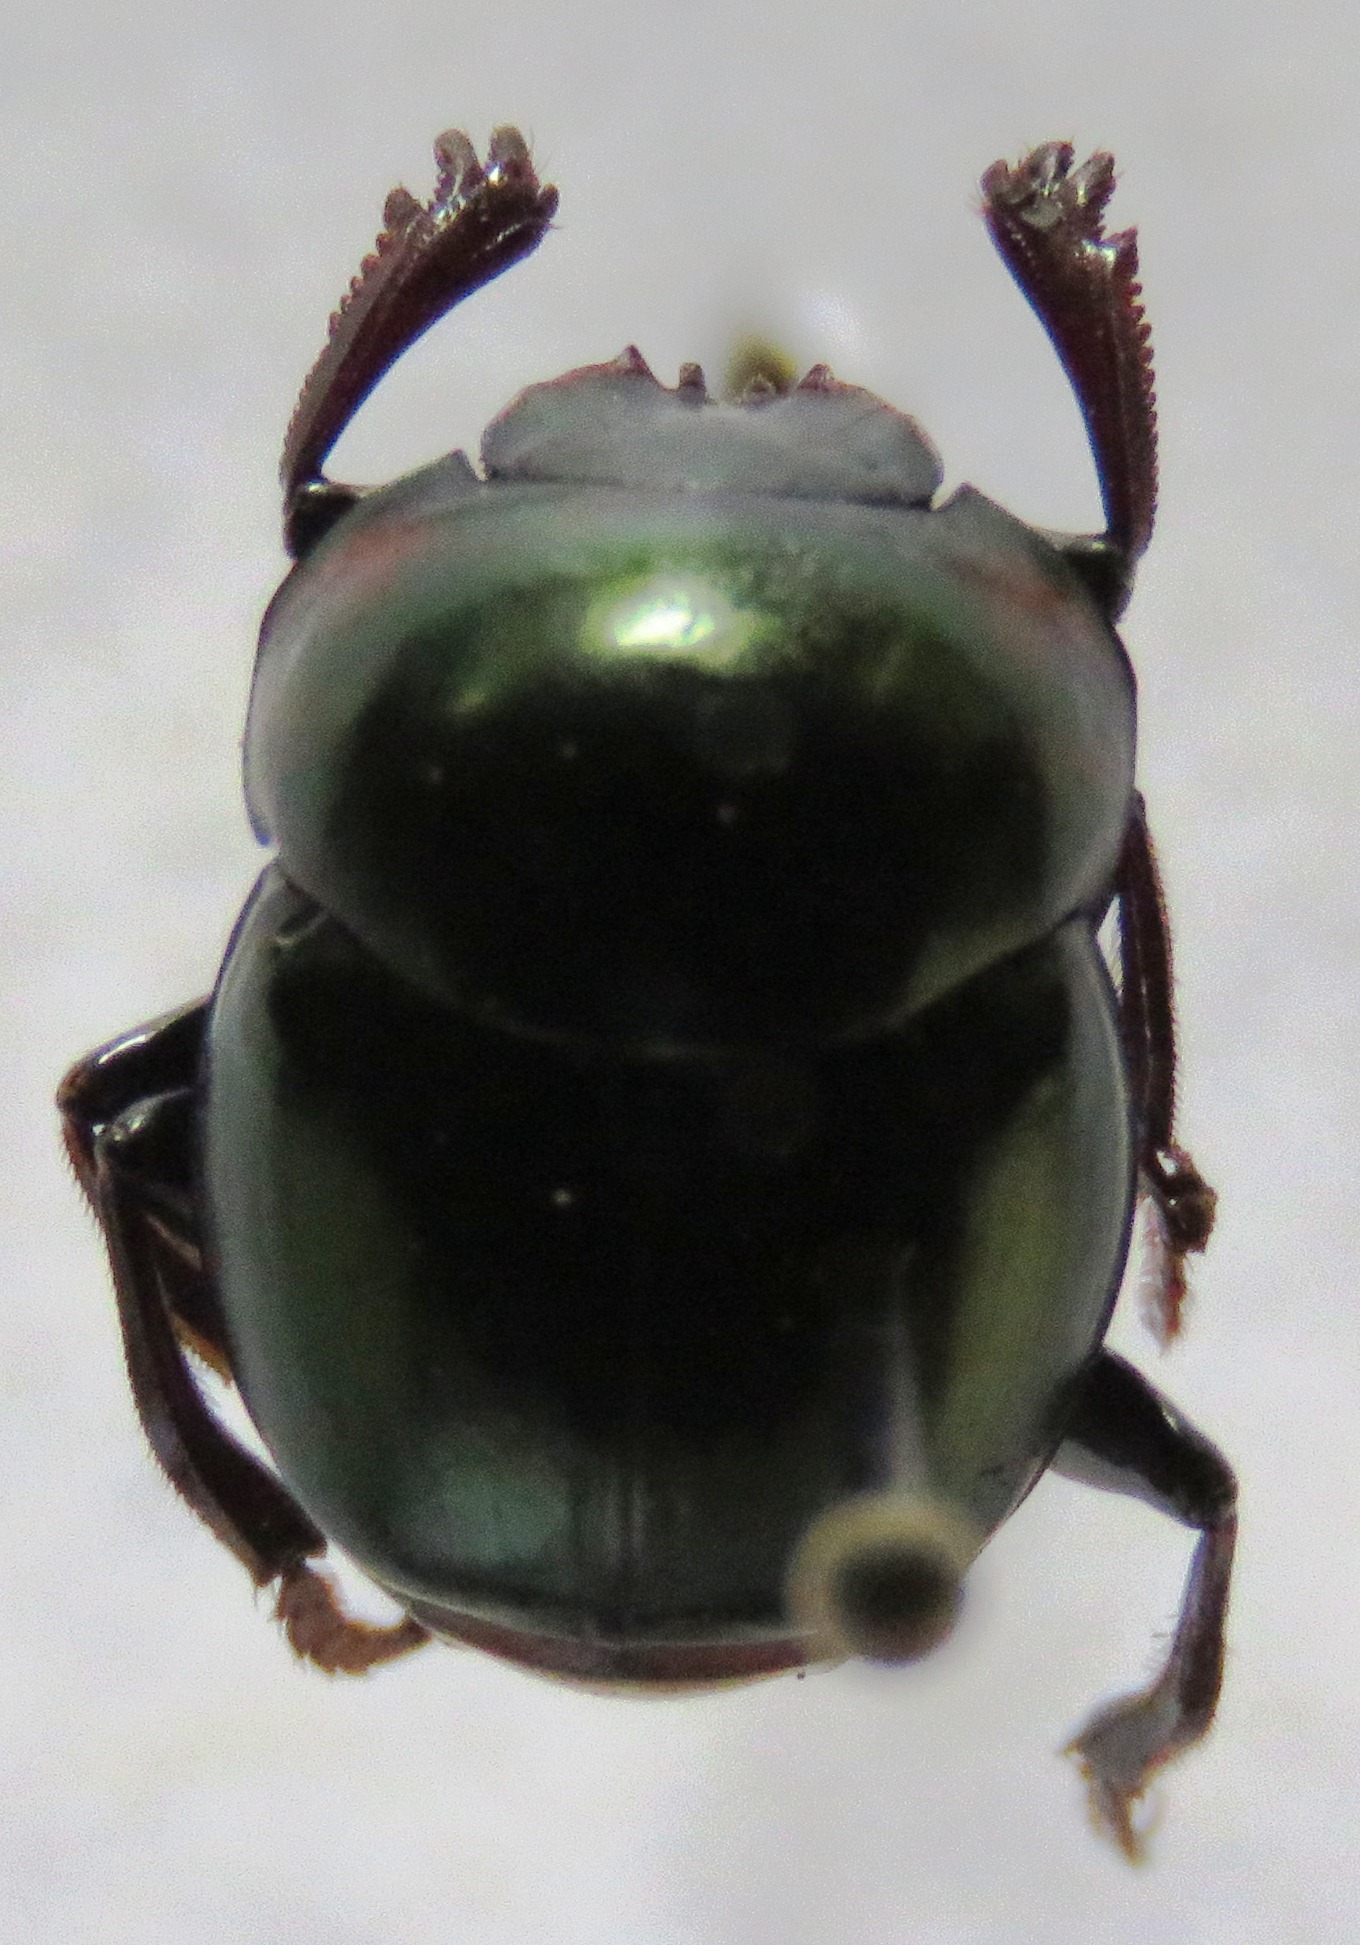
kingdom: Animalia
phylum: Arthropoda
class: Insecta
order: Coleoptera
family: Scarabaeidae
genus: Canthon
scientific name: Canthon cyanellus
